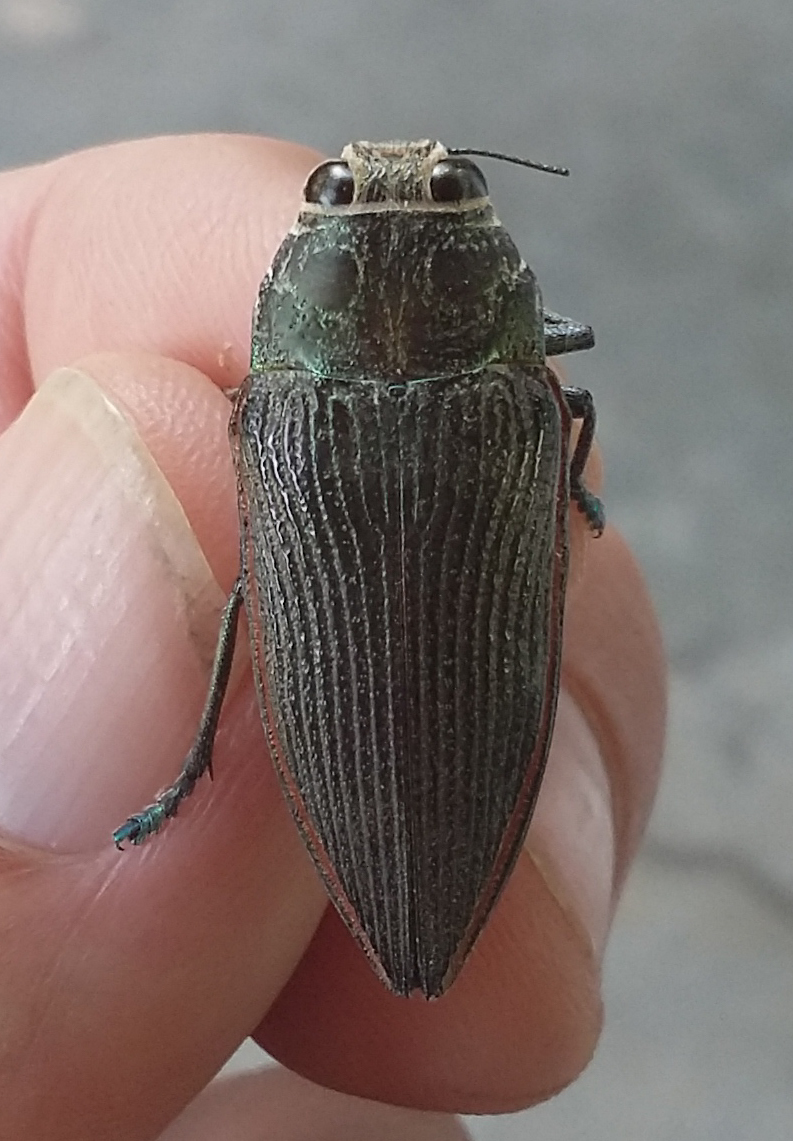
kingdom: Animalia
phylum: Arthropoda
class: Insecta
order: Coleoptera
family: Buprestidae
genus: Lampetis
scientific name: Lampetis foveicollis
